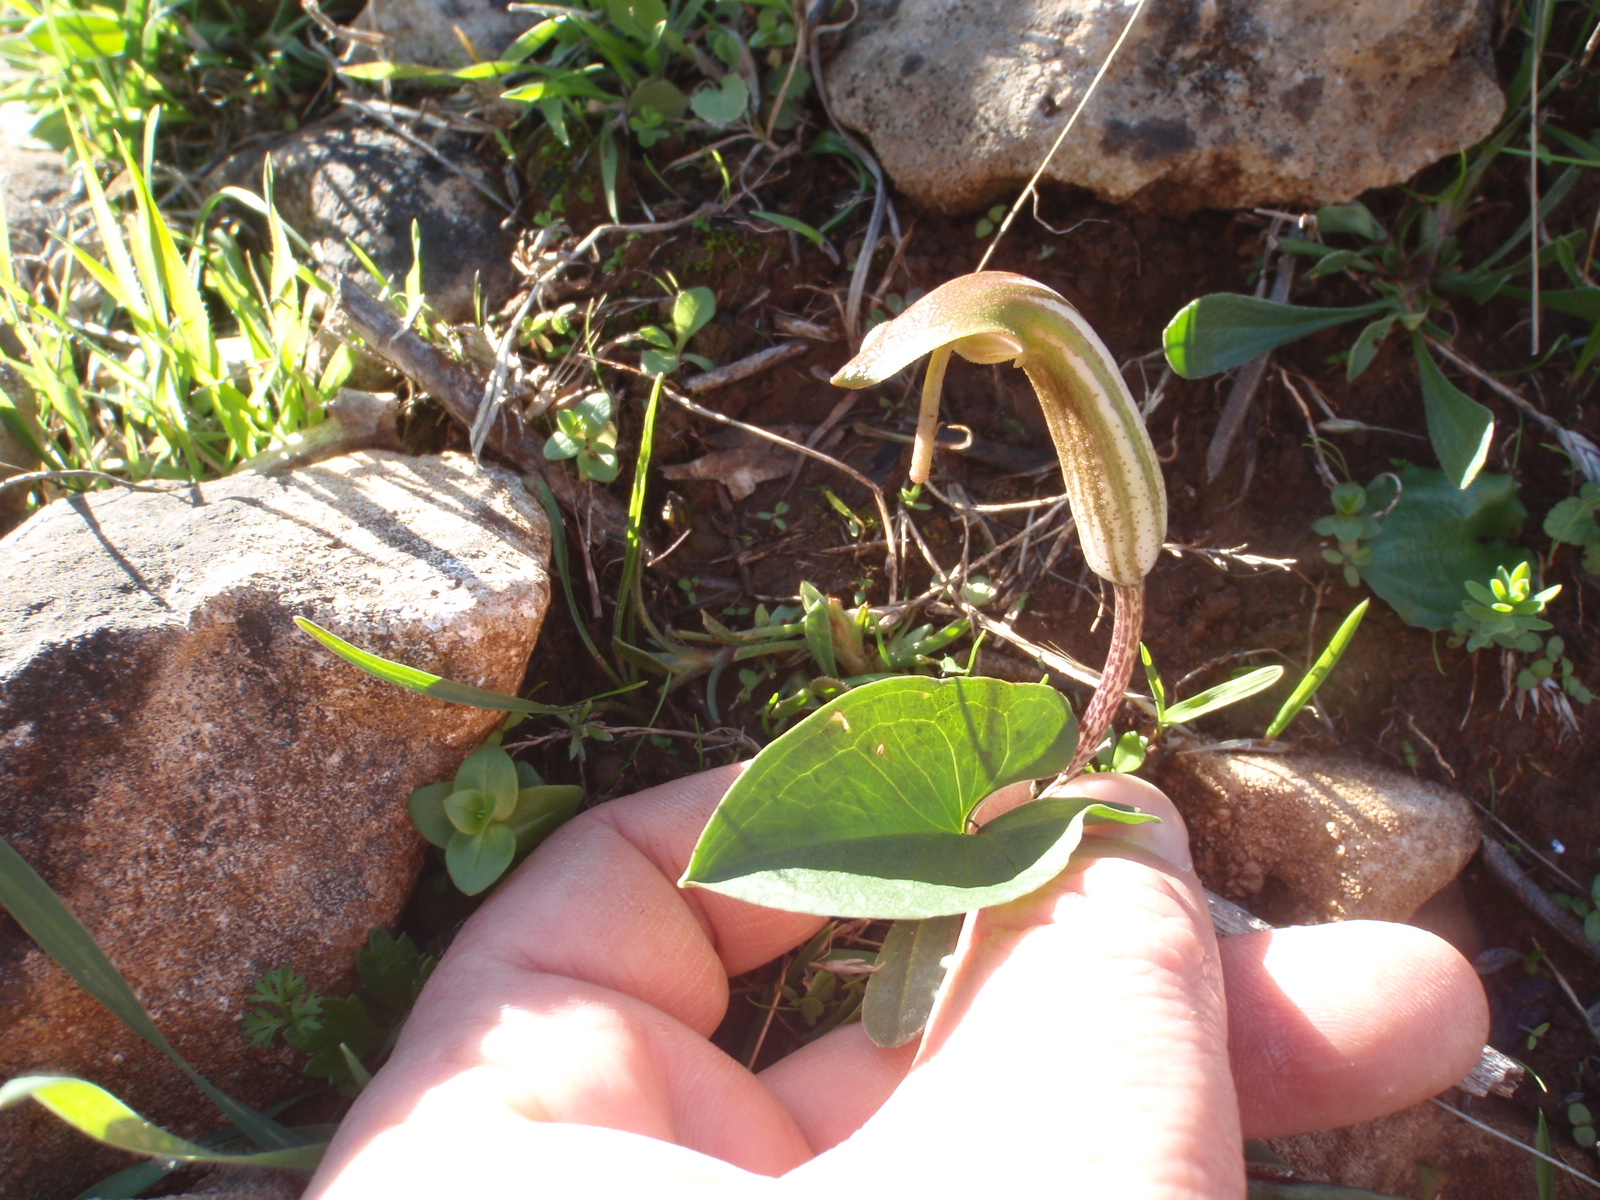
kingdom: Plantae
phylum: Tracheophyta
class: Liliopsida
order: Alismatales
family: Araceae
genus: Arisarum
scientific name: Arisarum vulgare
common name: Common arisarum
